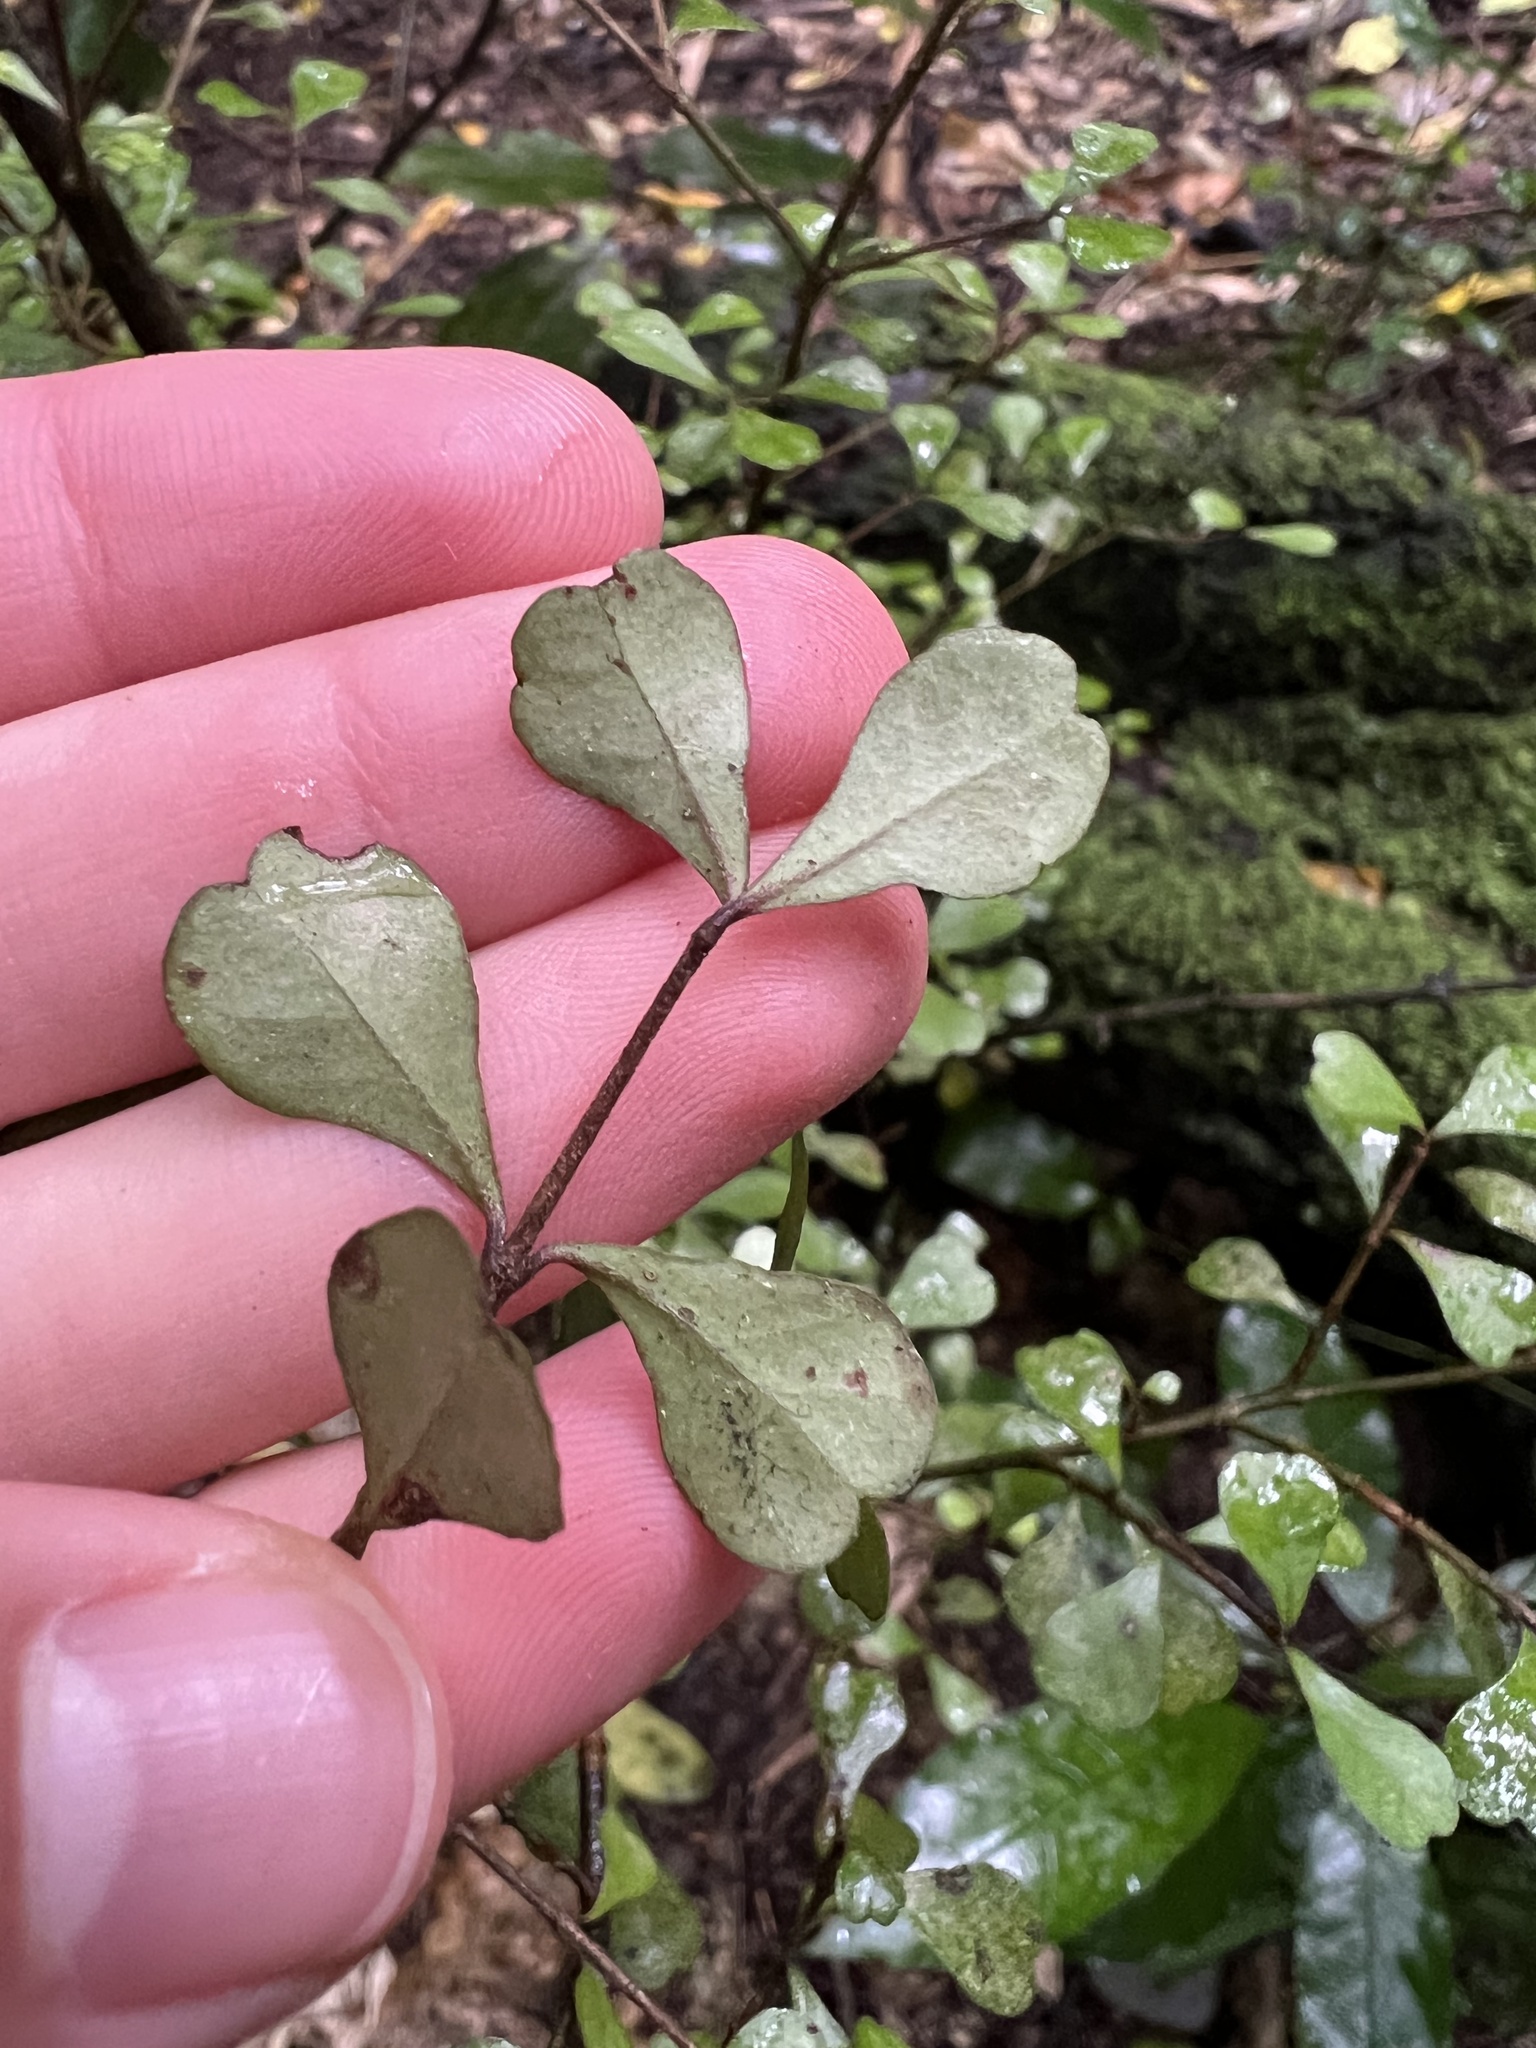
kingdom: Plantae
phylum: Tracheophyta
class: Magnoliopsida
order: Myrtales
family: Myrtaceae
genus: Lophomyrtus
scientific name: Lophomyrtus obcordata
